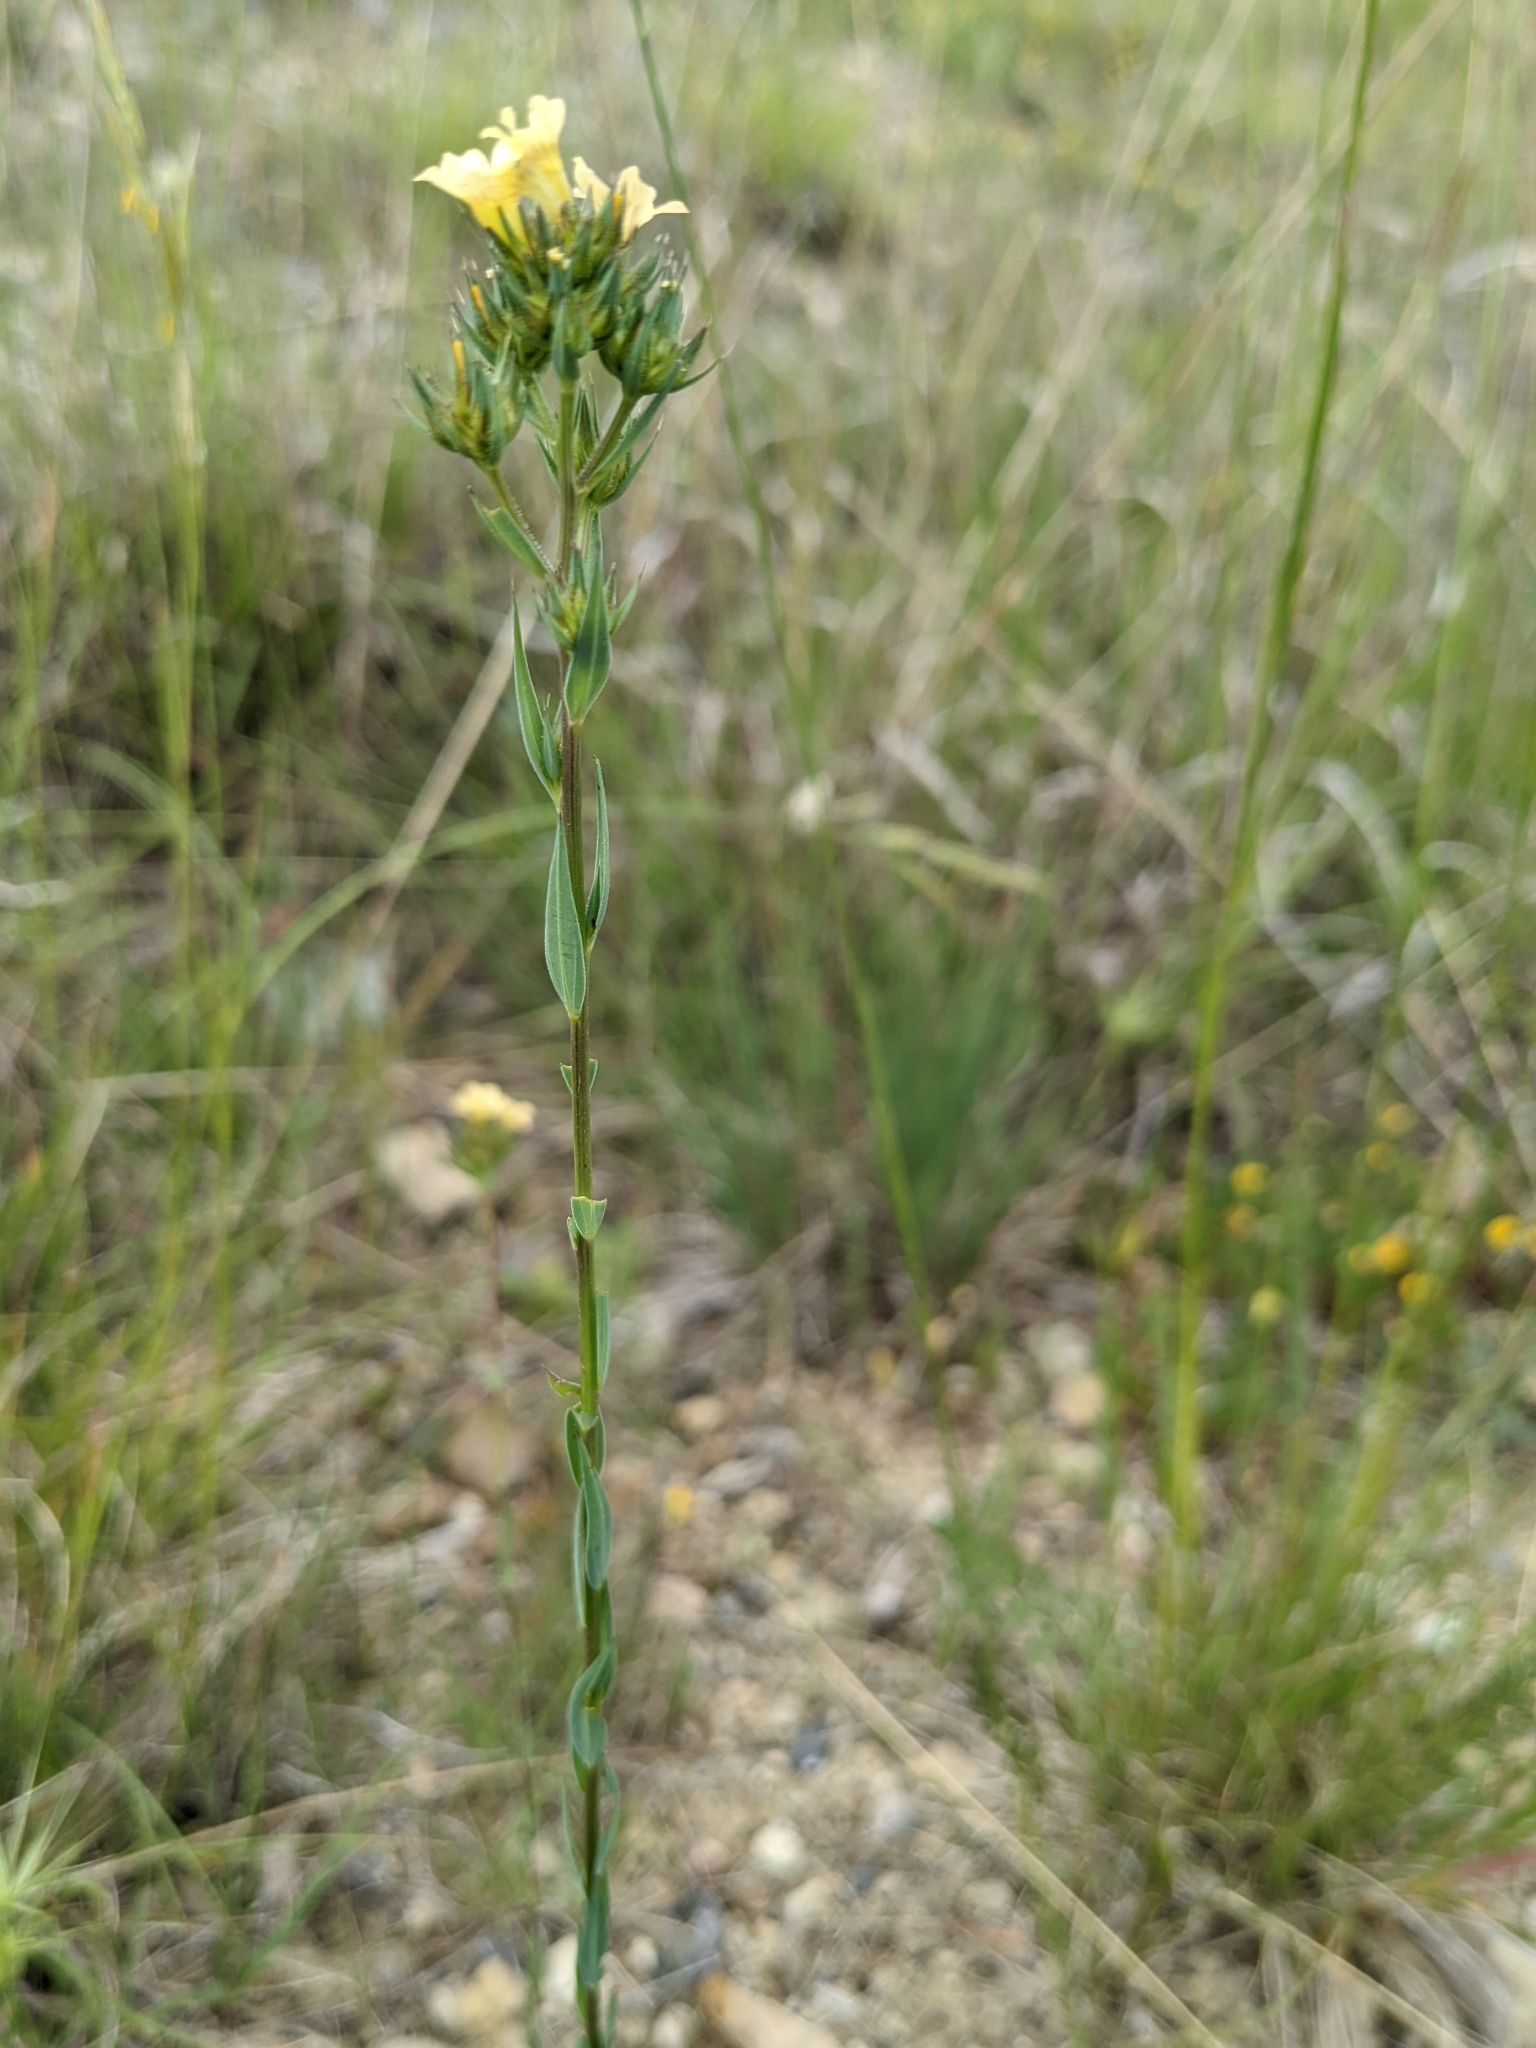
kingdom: Plantae
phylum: Tracheophyta
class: Magnoliopsida
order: Malpighiales
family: Linaceae
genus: Linum
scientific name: Linum strictum
